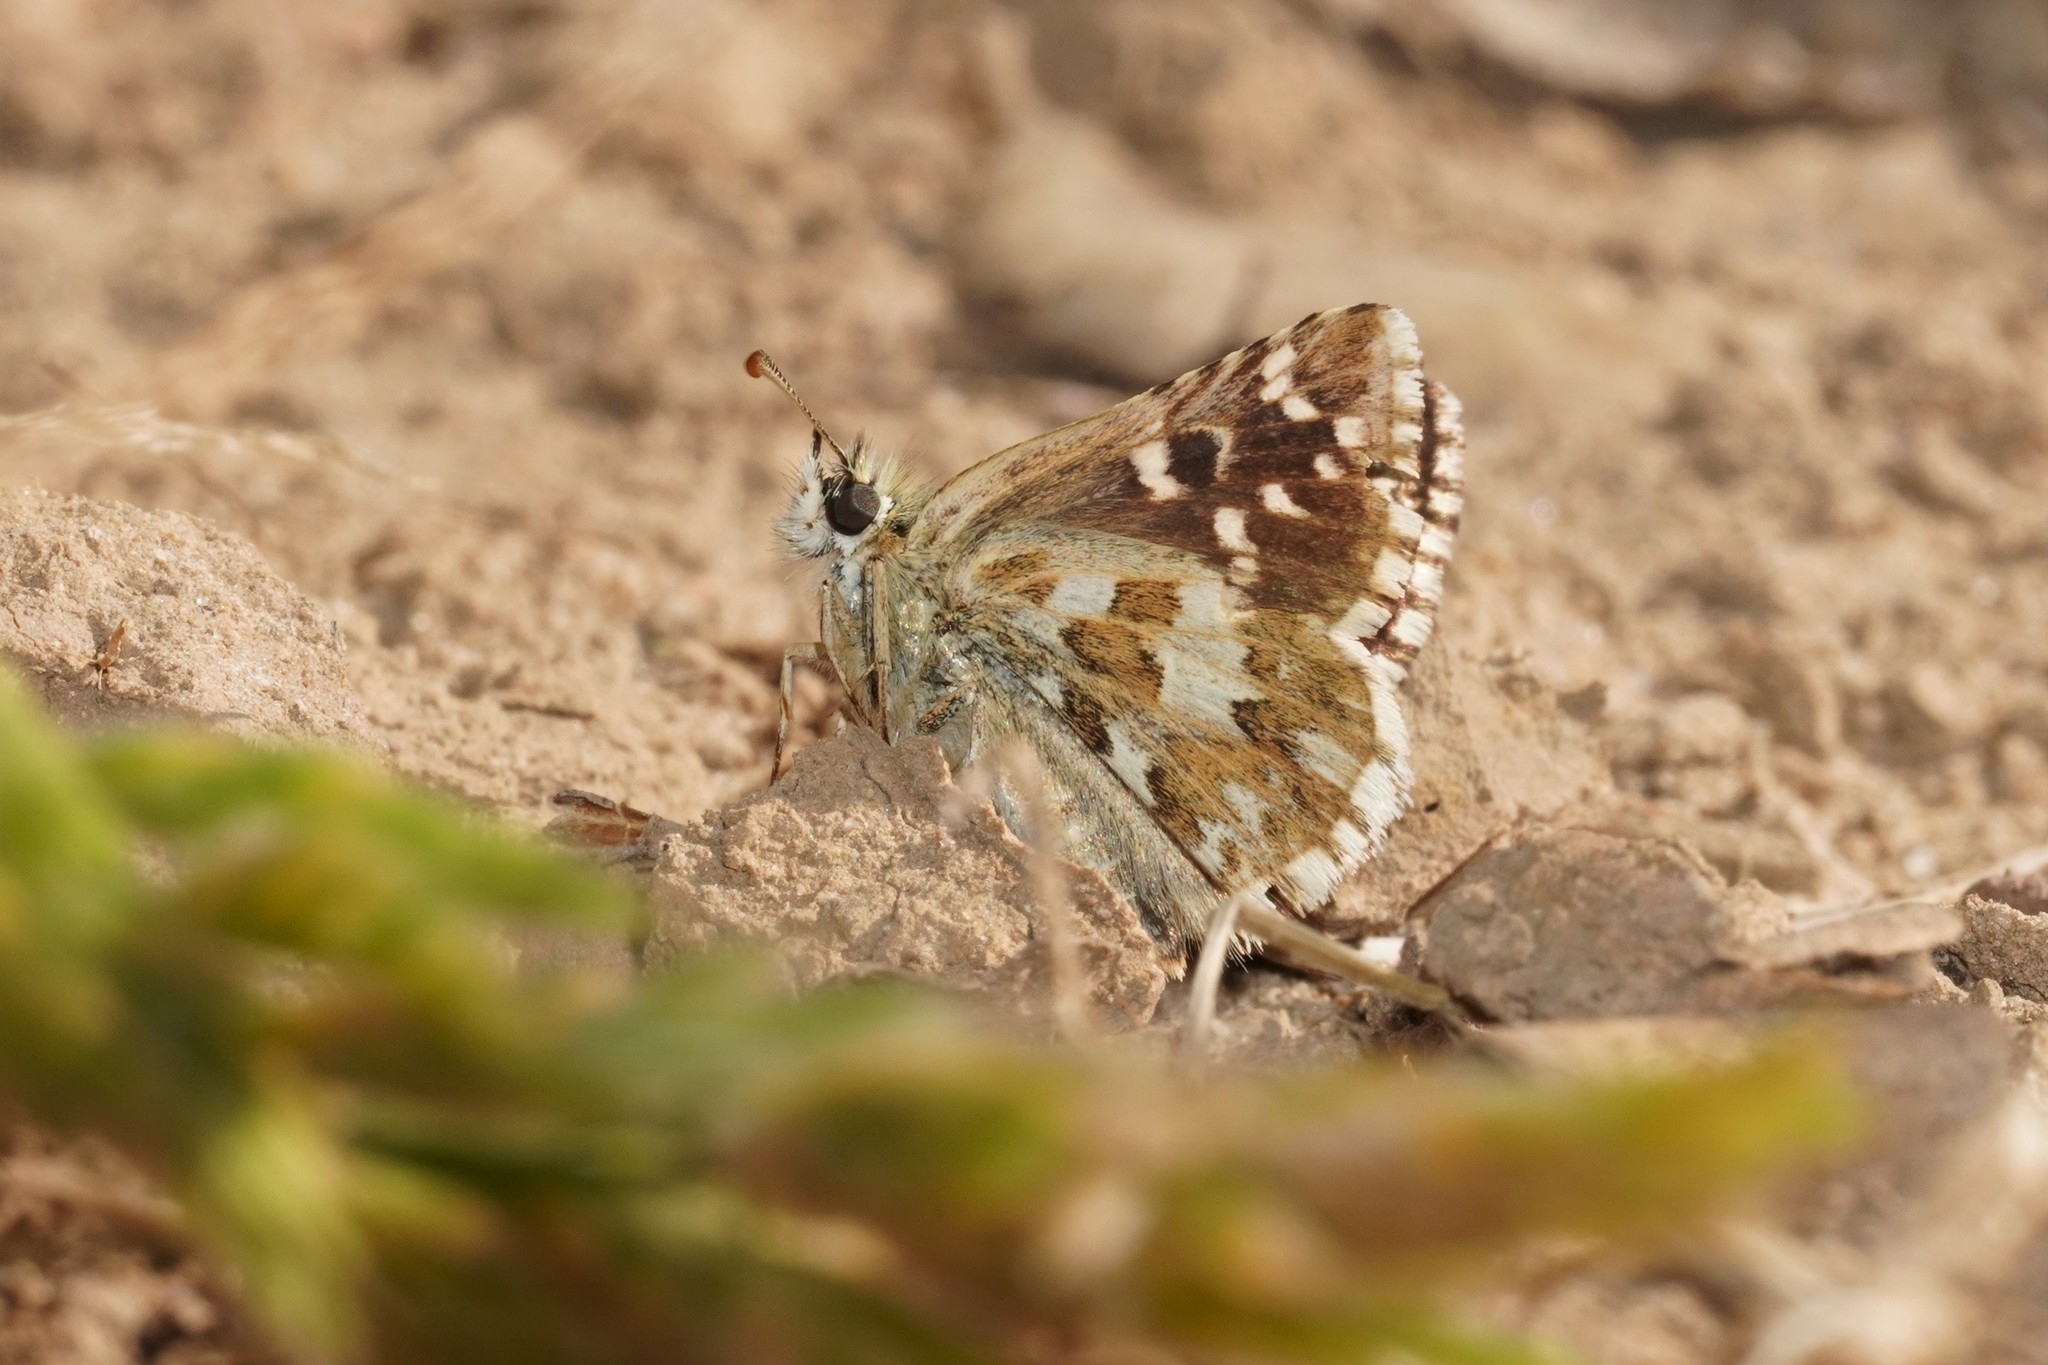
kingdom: Animalia
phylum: Arthropoda
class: Insecta
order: Lepidoptera
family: Hesperiidae
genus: Pyrgus
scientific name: Pyrgus onopordi
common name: Rosy grizzled skipper
